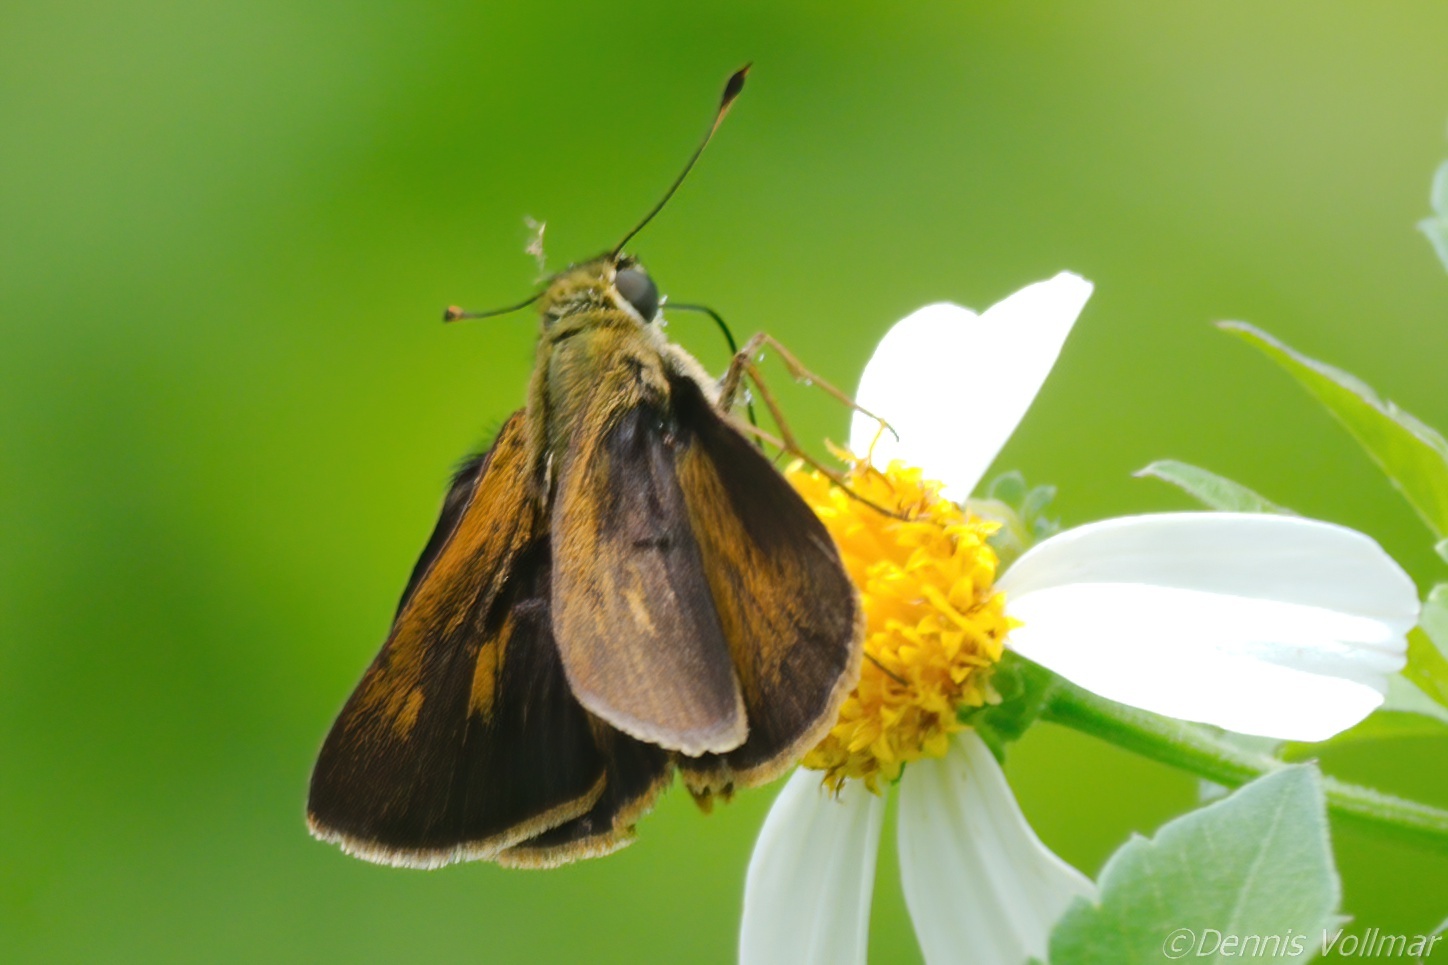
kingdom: Animalia
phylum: Arthropoda
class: Insecta
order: Lepidoptera
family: Hesperiidae
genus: Polites
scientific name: Polites otho
